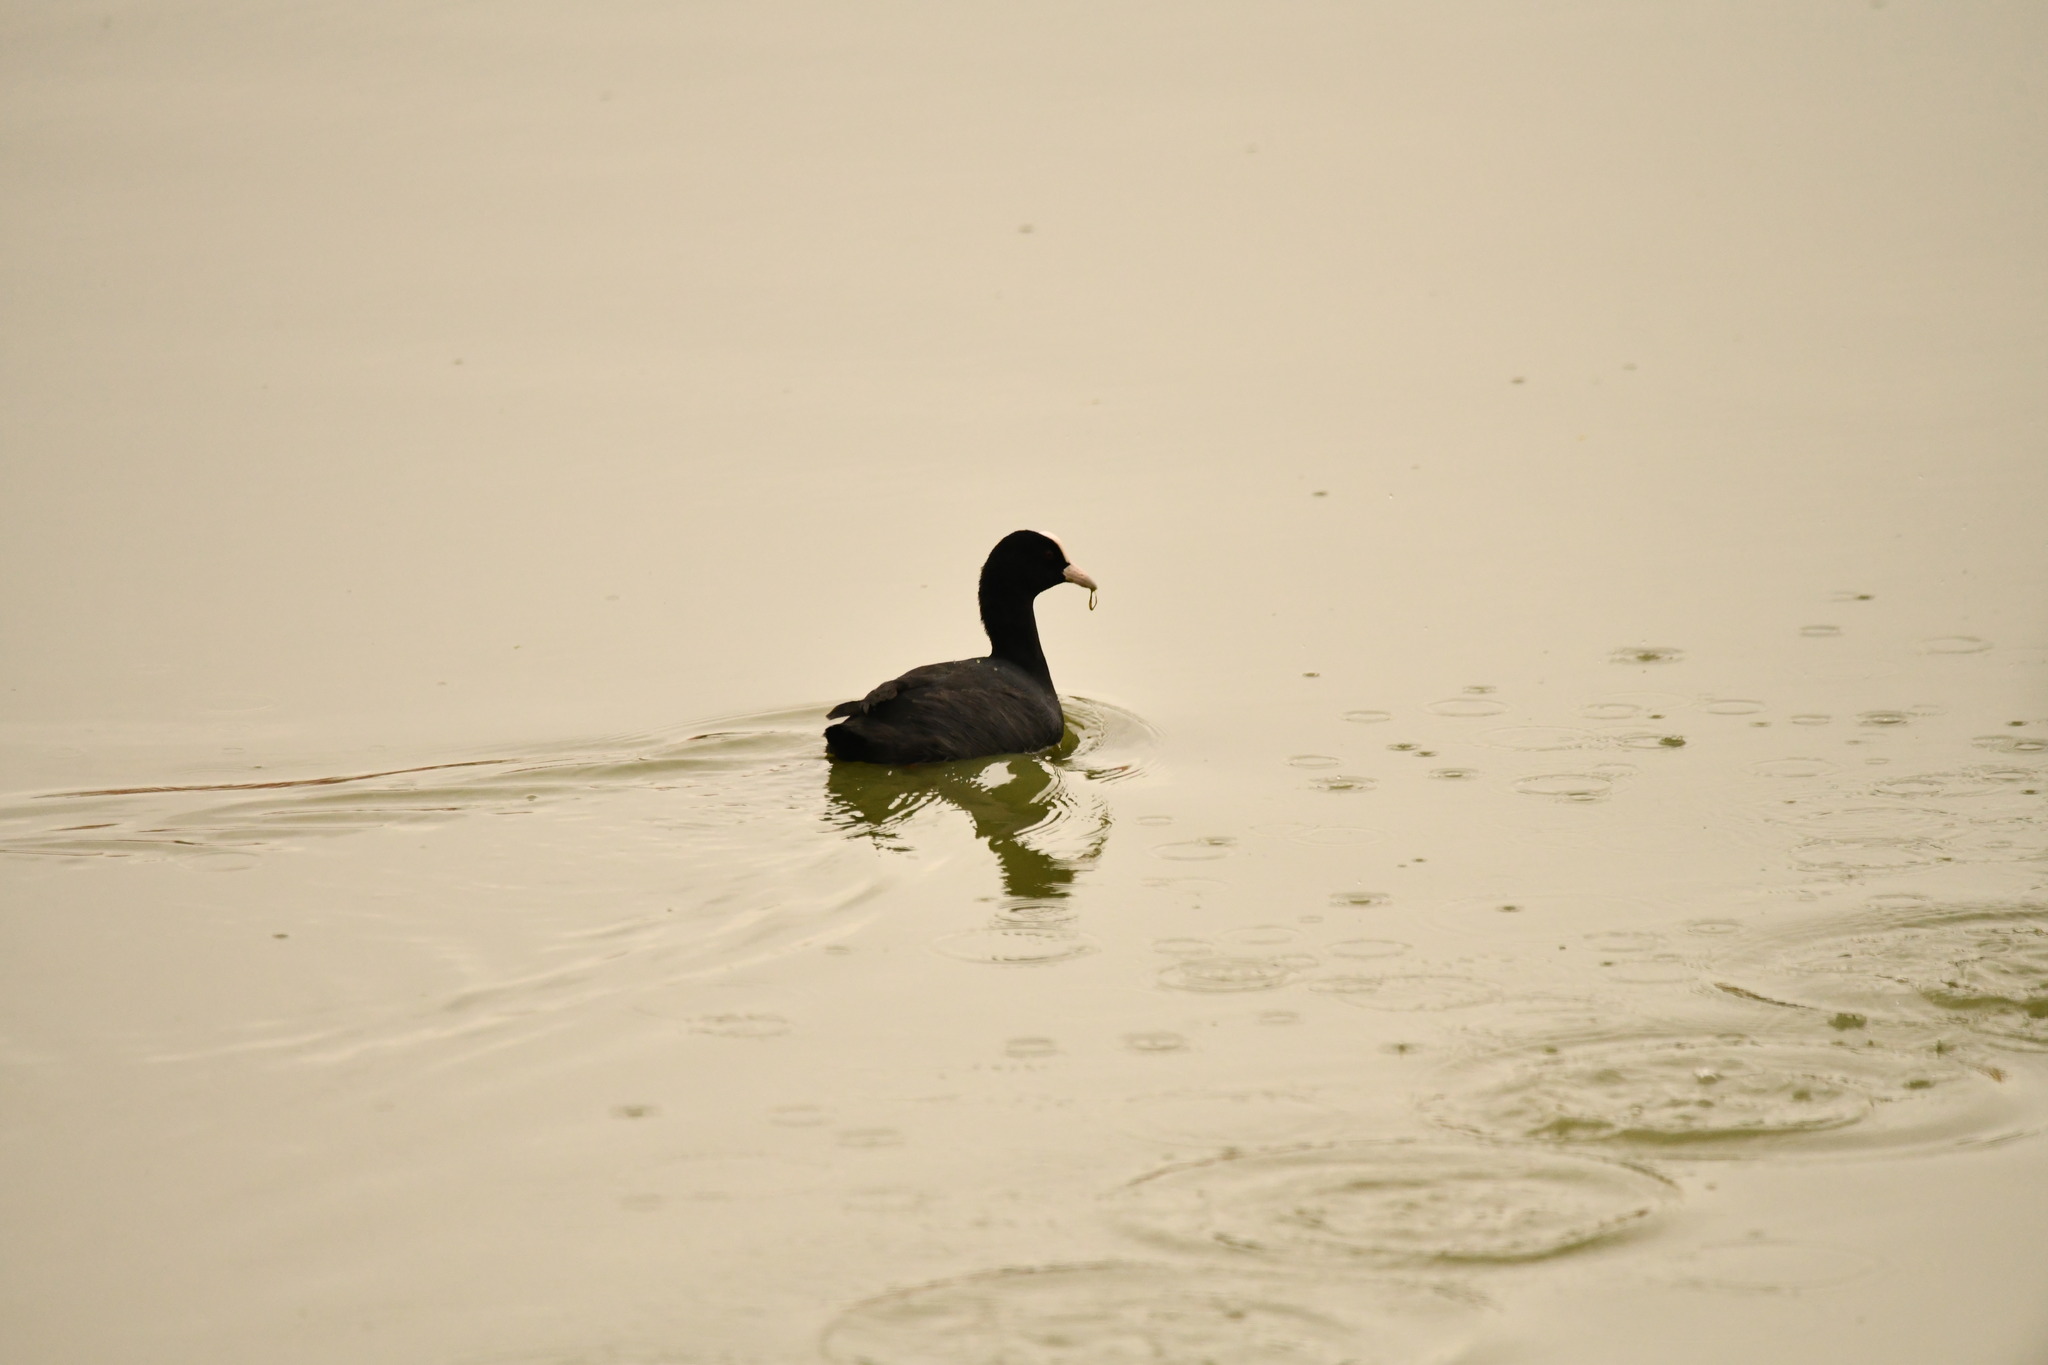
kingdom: Animalia
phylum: Chordata
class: Aves
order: Gruiformes
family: Rallidae
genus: Fulica
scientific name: Fulica atra
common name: Eurasian coot
